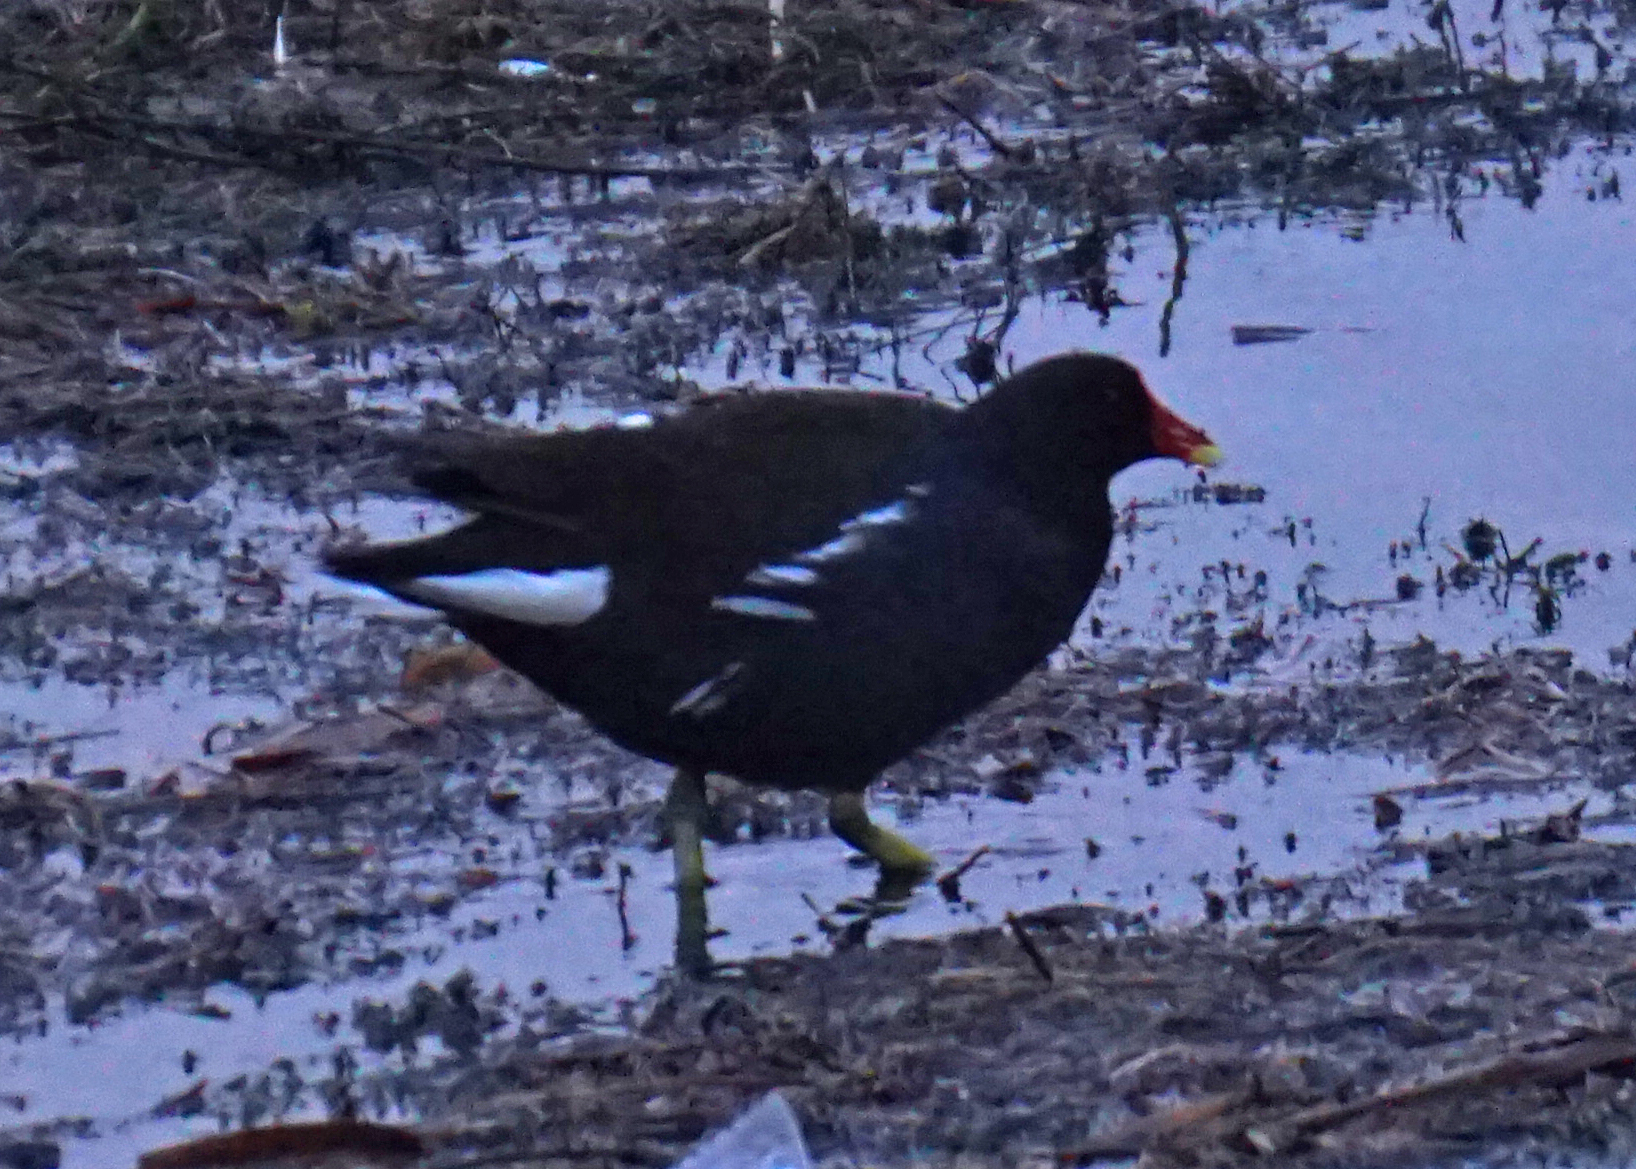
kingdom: Animalia
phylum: Chordata
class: Aves
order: Gruiformes
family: Rallidae
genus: Gallinula
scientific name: Gallinula chloropus
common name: Common moorhen
